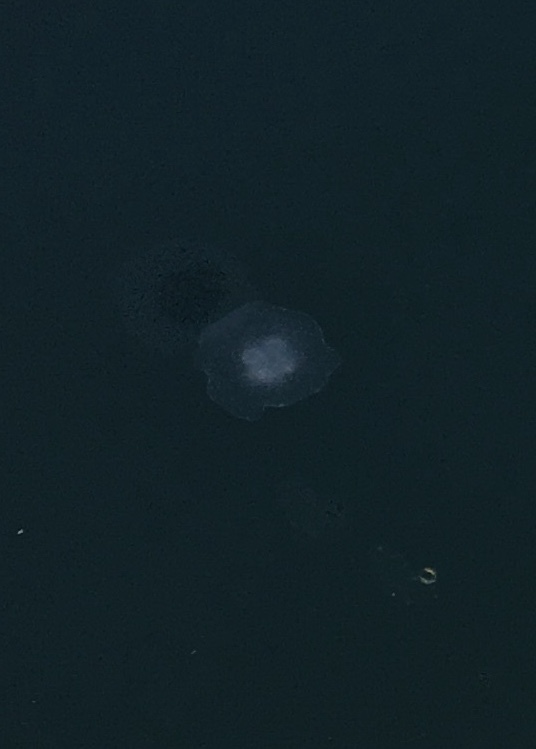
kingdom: Animalia
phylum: Cnidaria
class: Scyphozoa
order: Semaeostomeae
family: Ulmaridae
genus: Aurelia
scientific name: Aurelia labiata
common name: Pacific moon jelly
